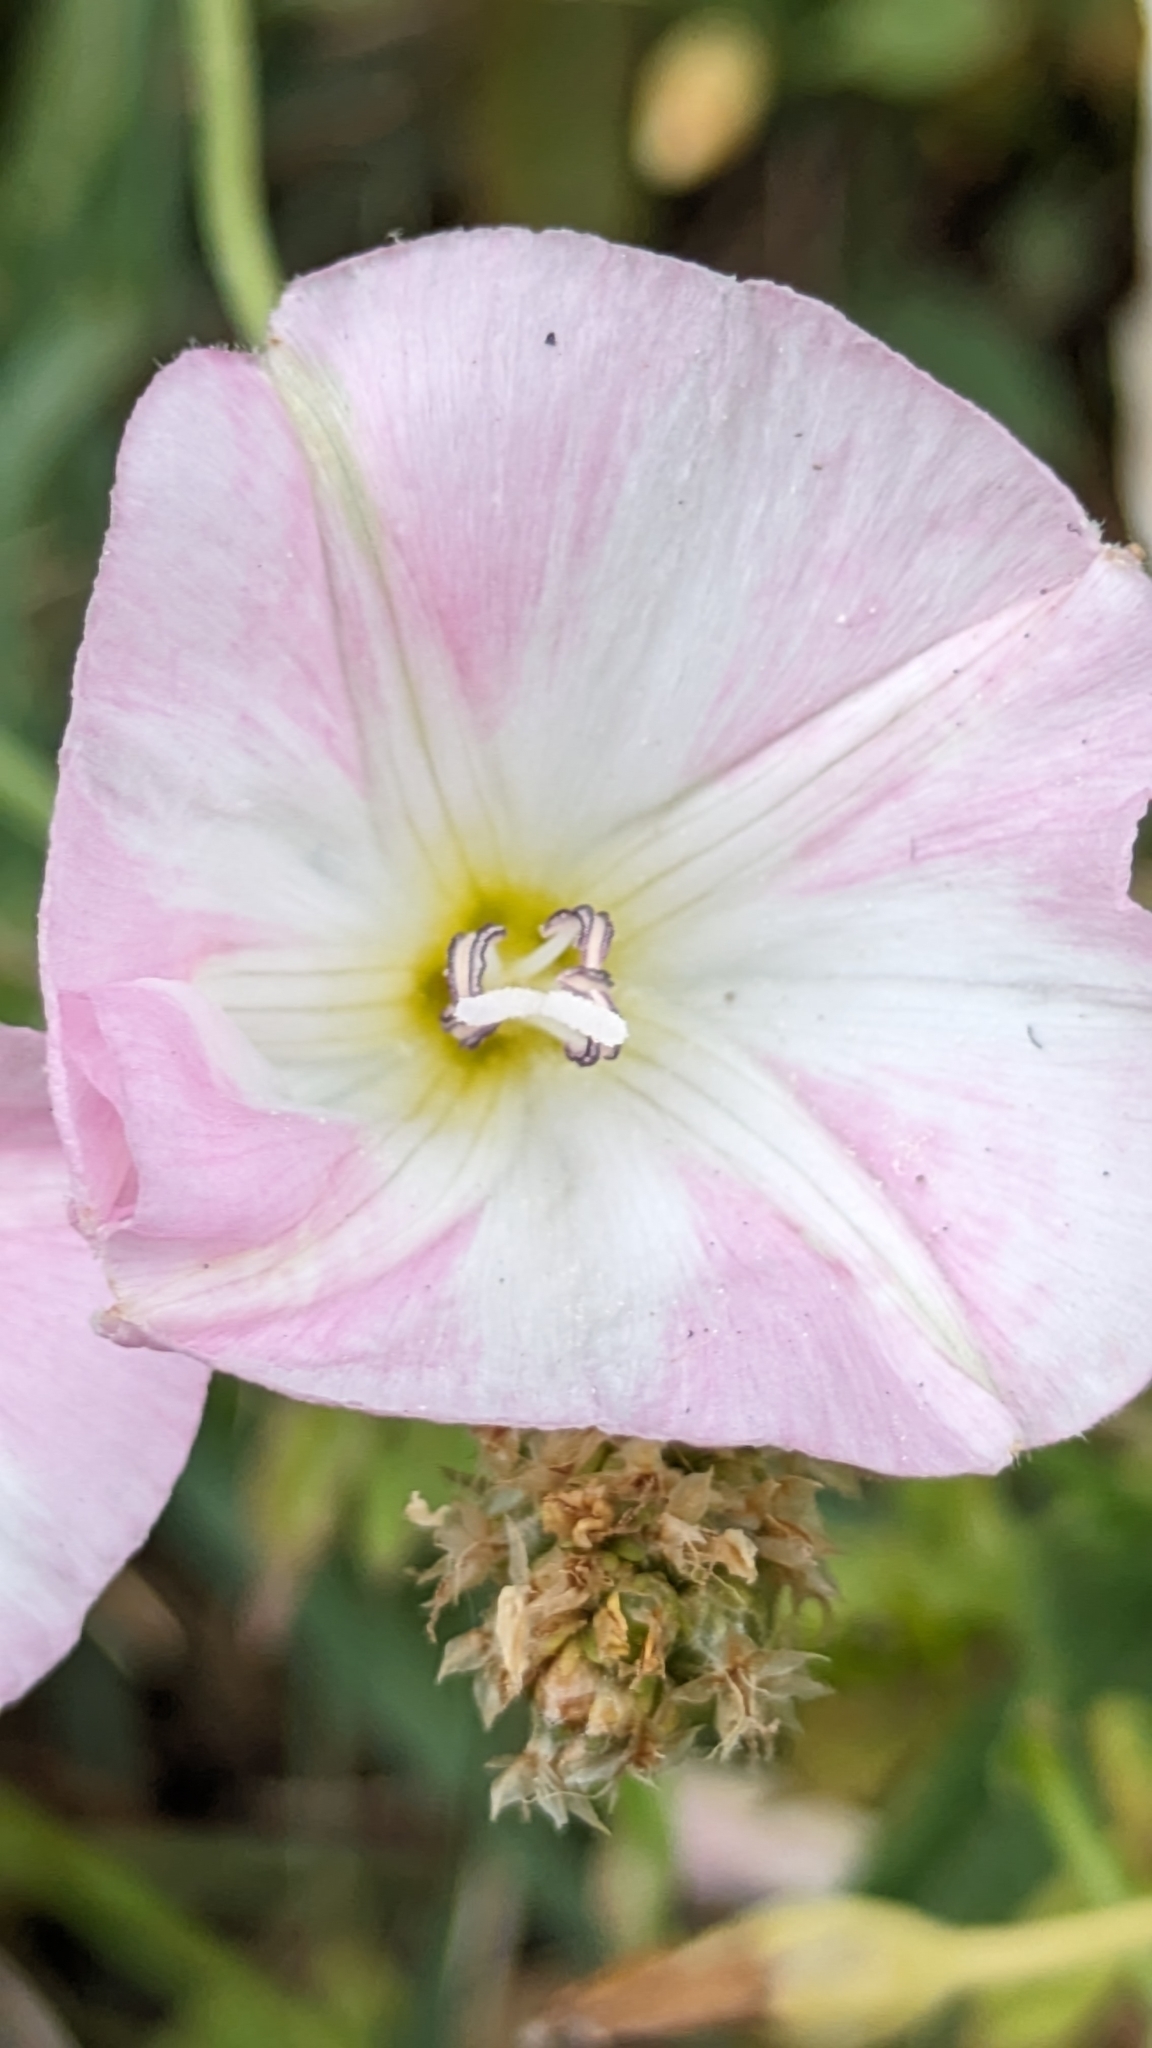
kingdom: Plantae
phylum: Tracheophyta
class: Magnoliopsida
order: Solanales
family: Convolvulaceae
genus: Convolvulus
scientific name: Convolvulus arvensis
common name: Field bindweed
